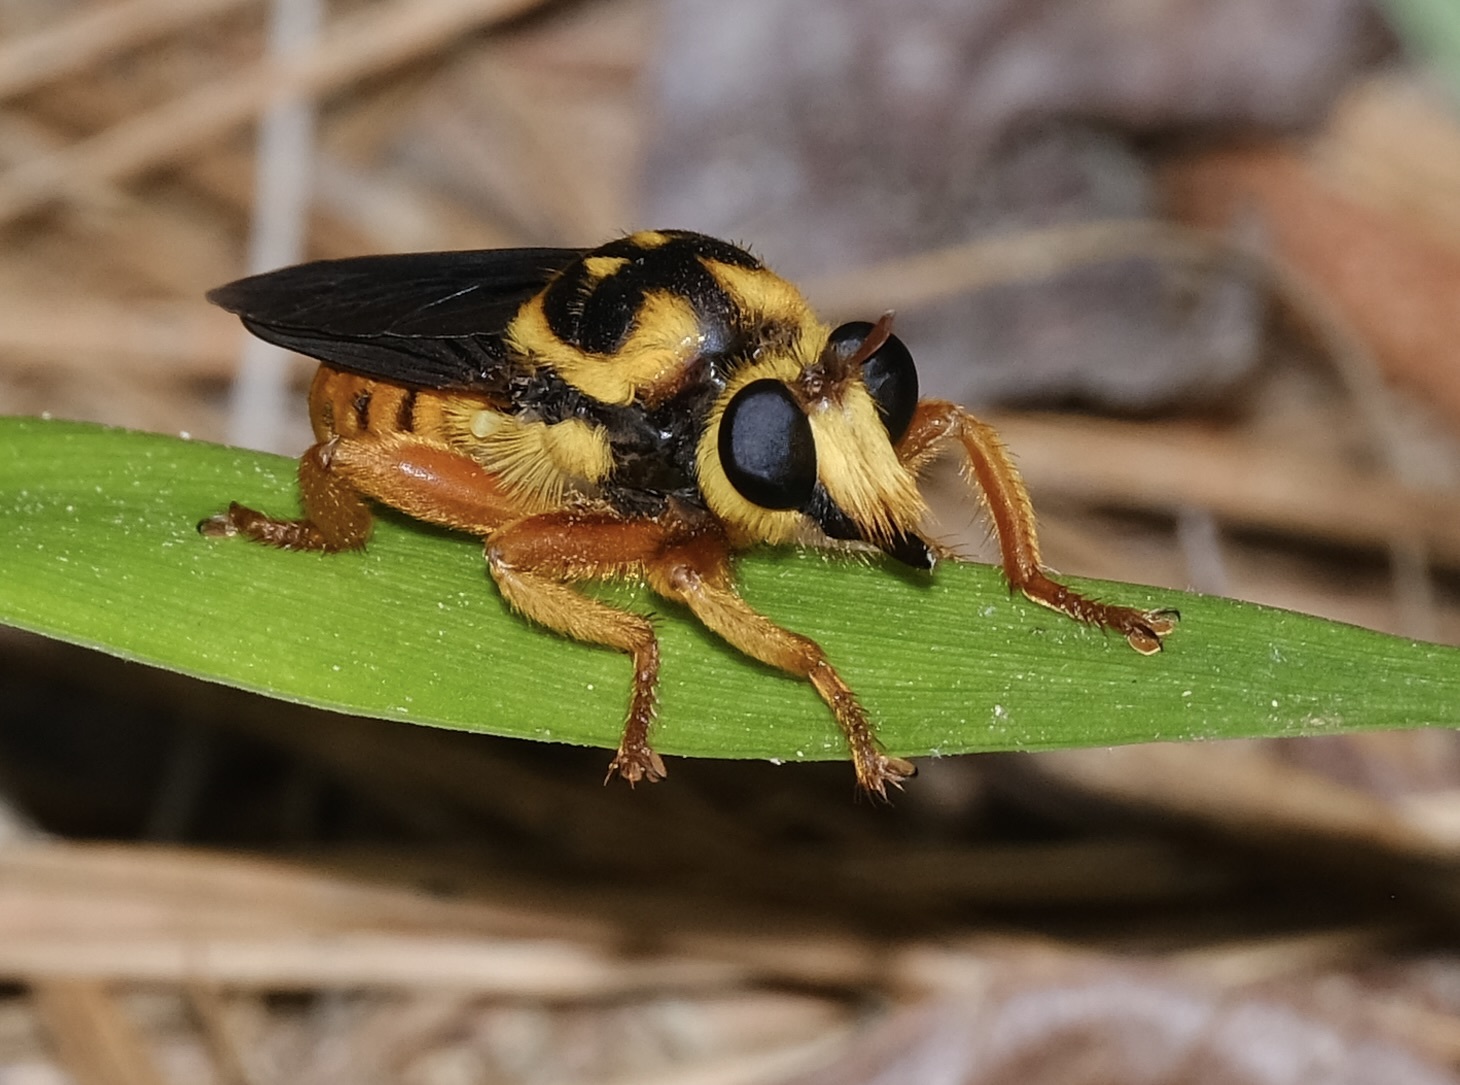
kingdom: Animalia
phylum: Arthropoda
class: Insecta
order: Diptera
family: Asilidae
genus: Laphria
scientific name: Laphria saffrana
